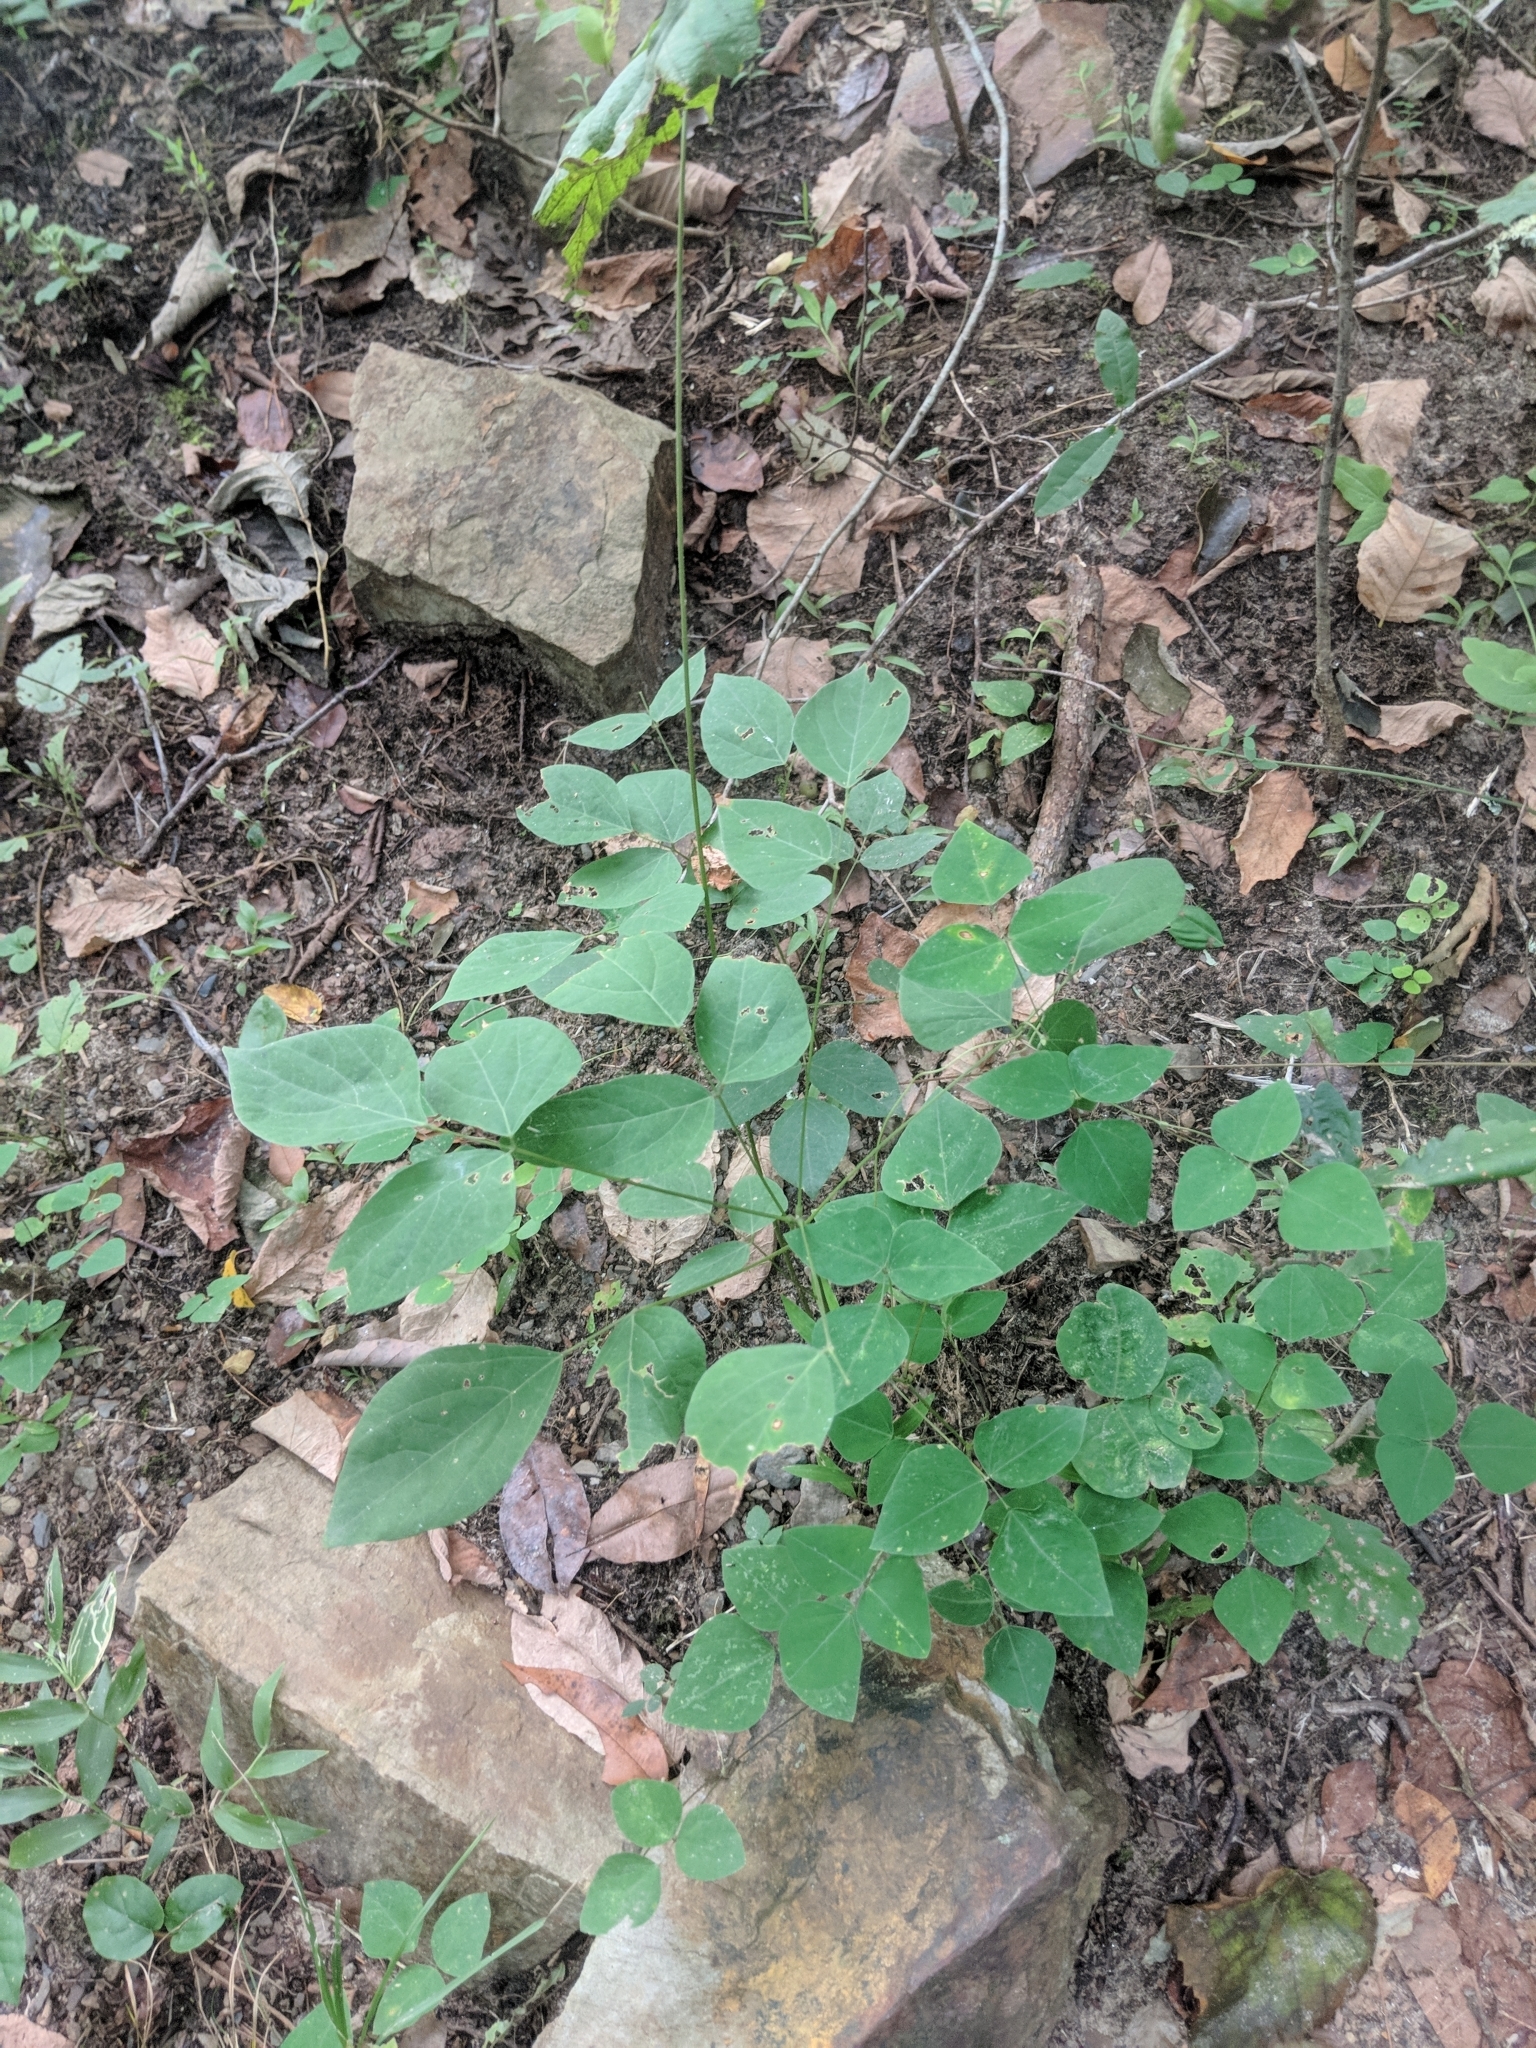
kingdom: Plantae
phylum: Tracheophyta
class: Magnoliopsida
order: Fabales
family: Fabaceae
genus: Amphicarpaea
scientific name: Amphicarpaea bracteata
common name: American hog peanut
